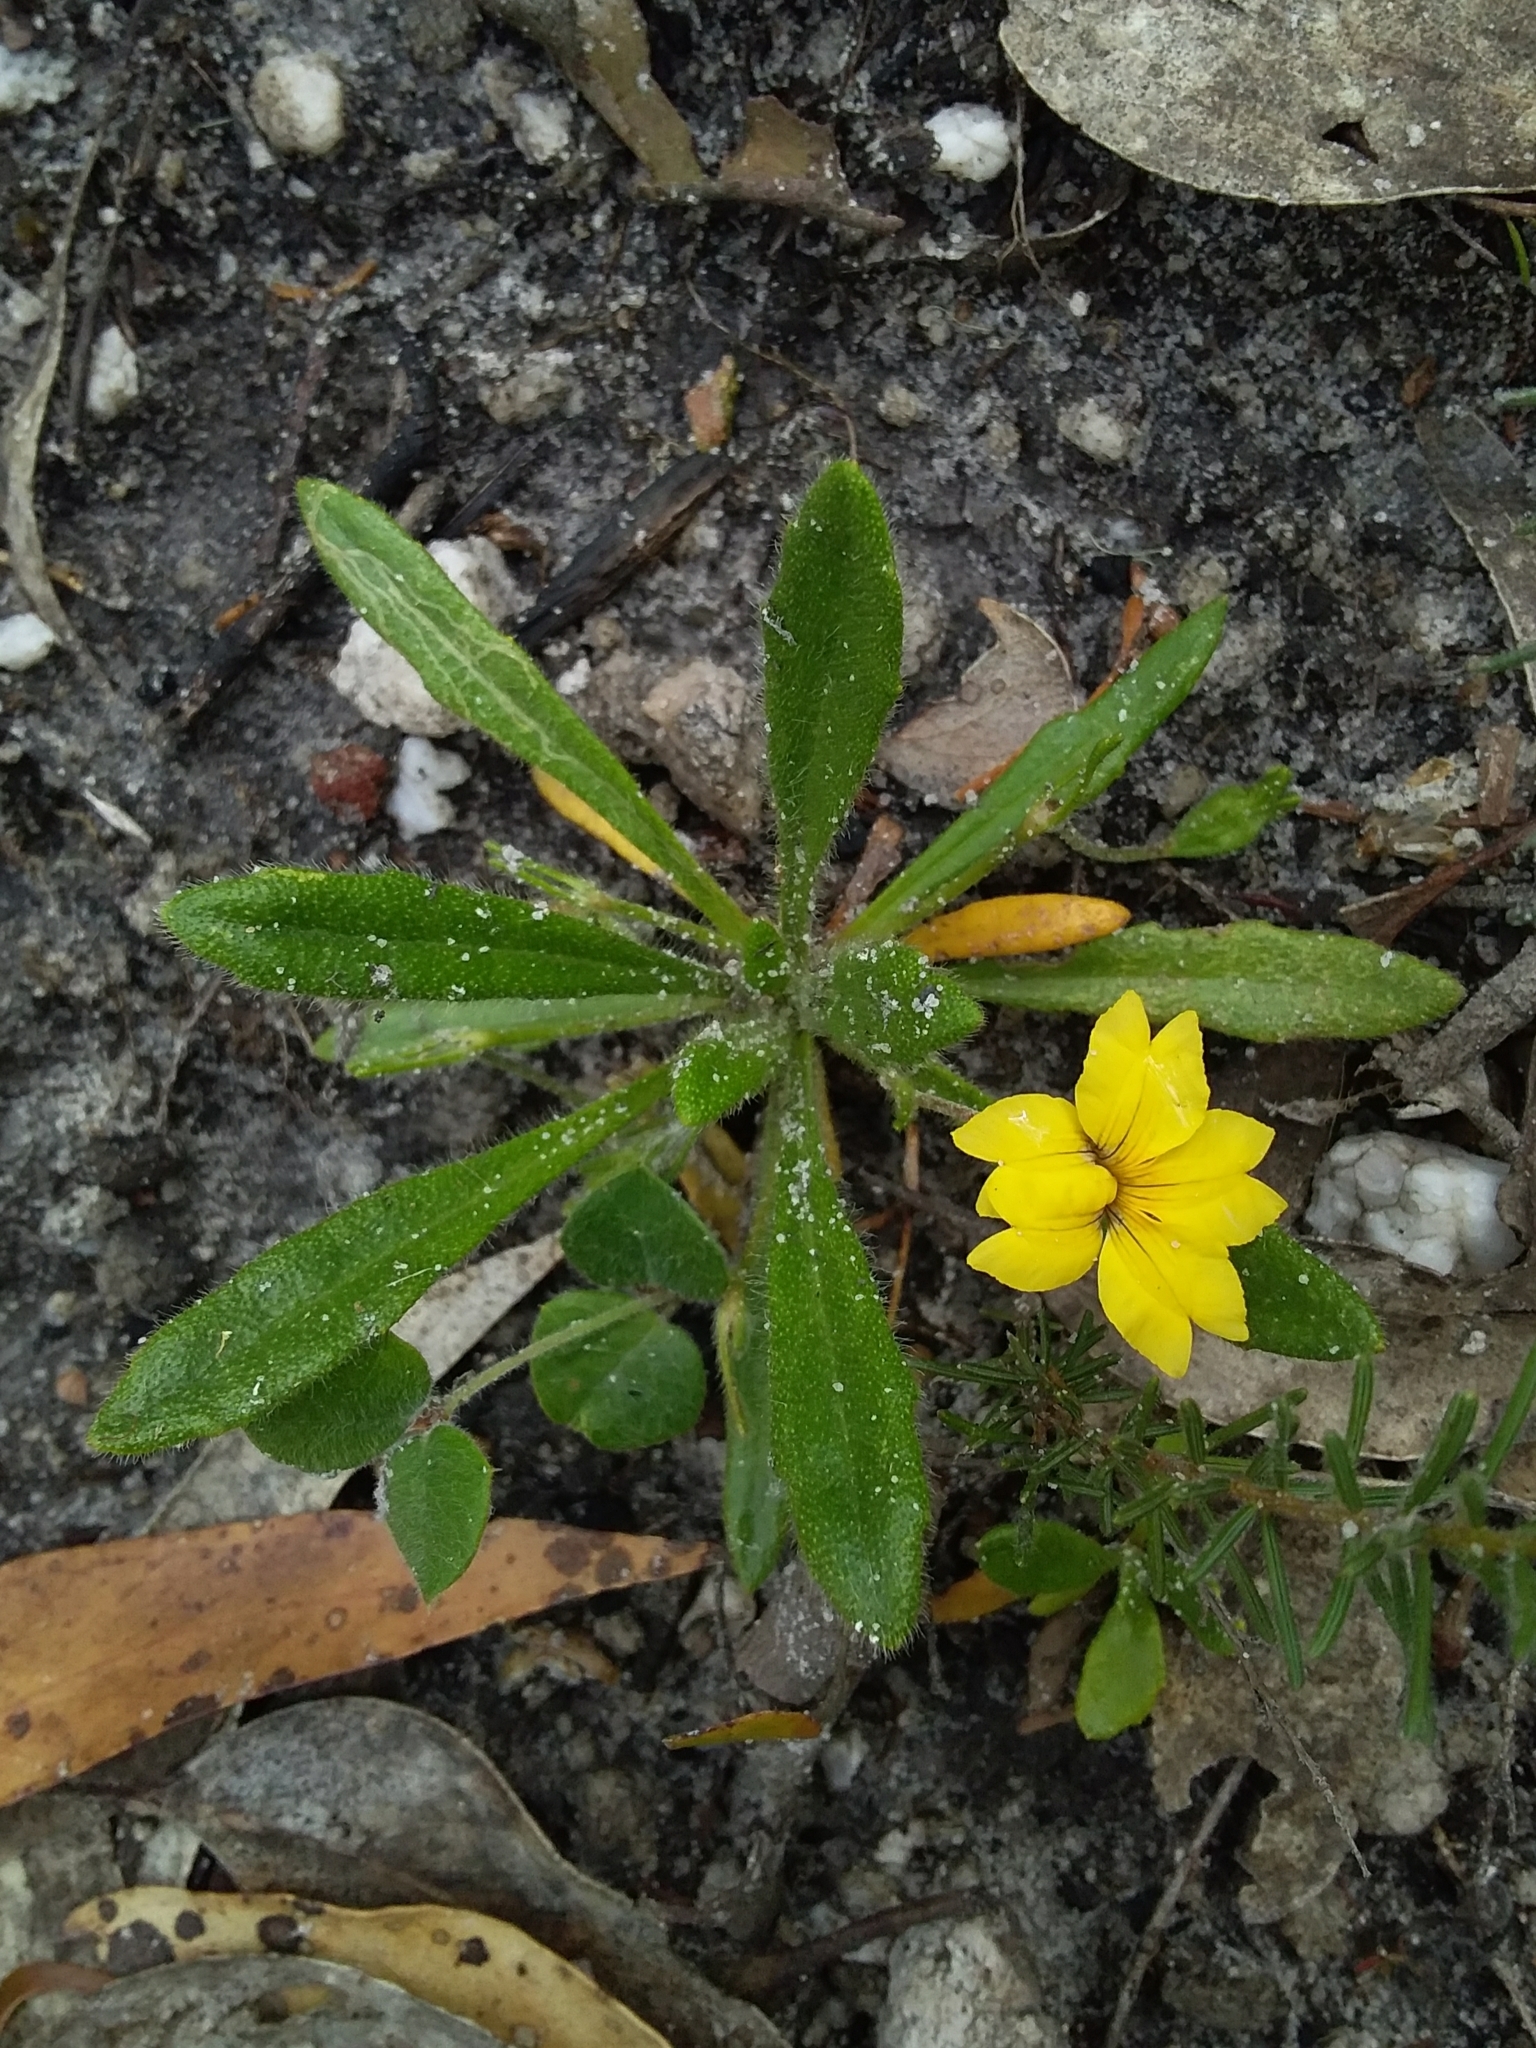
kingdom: Plantae
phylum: Tracheophyta
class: Magnoliopsida
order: Asterales
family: Goodeniaceae
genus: Goodenia
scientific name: Goodenia geniculata
